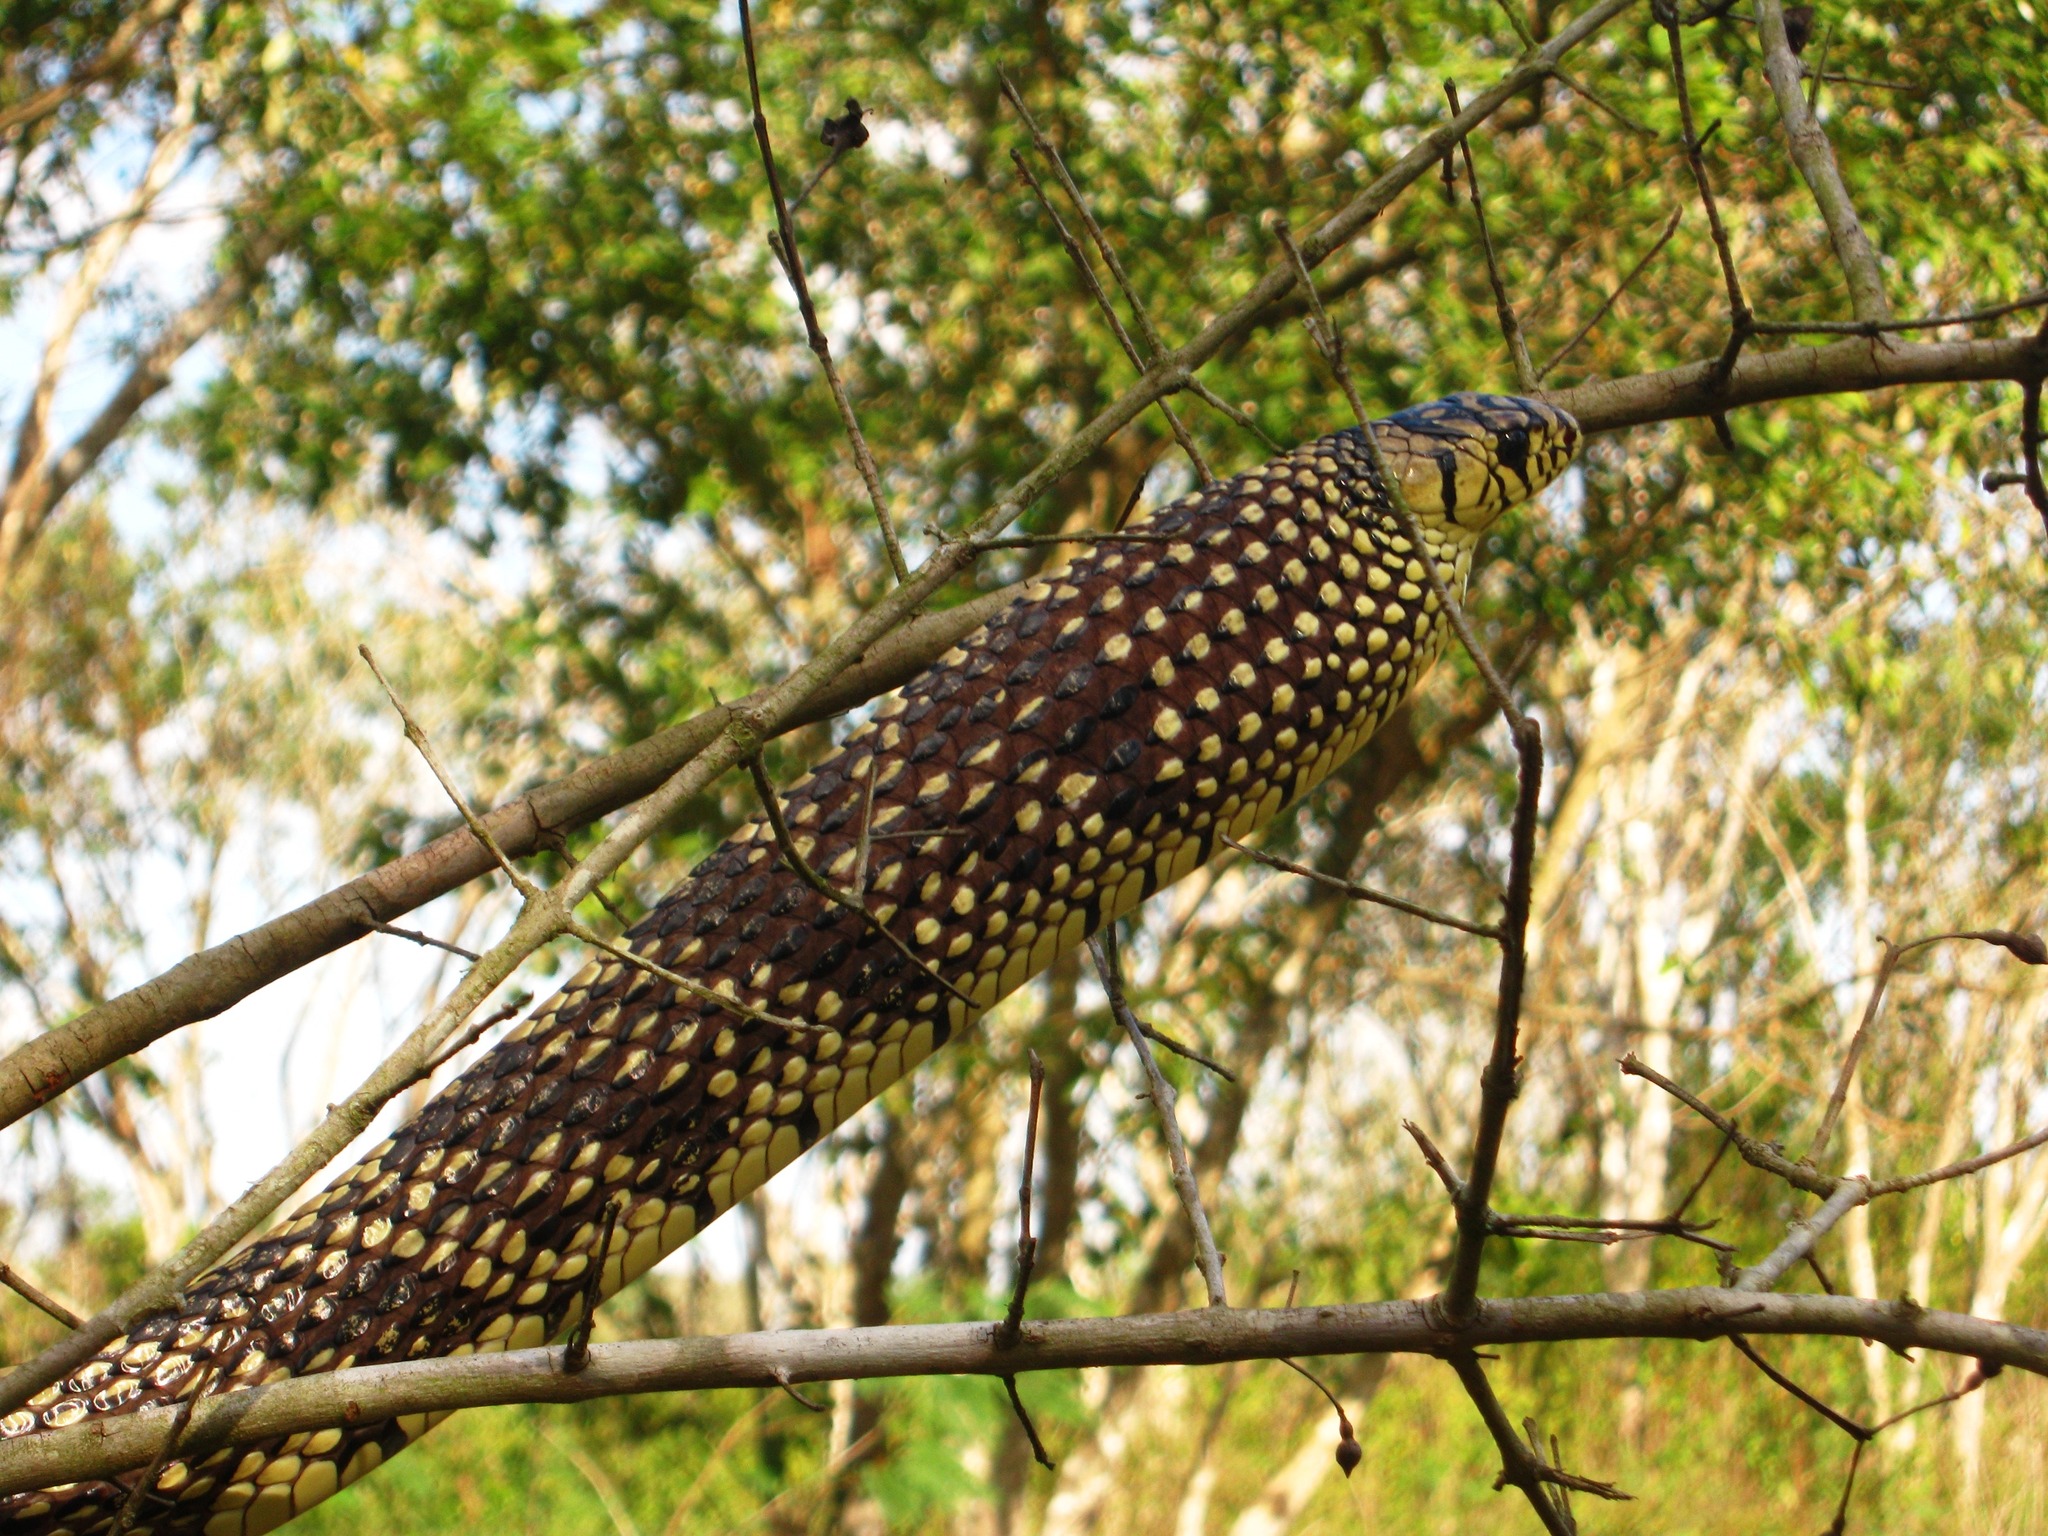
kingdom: Animalia
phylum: Chordata
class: Squamata
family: Colubridae
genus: Spilotes
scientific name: Spilotes pullatus
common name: Chicken snake
